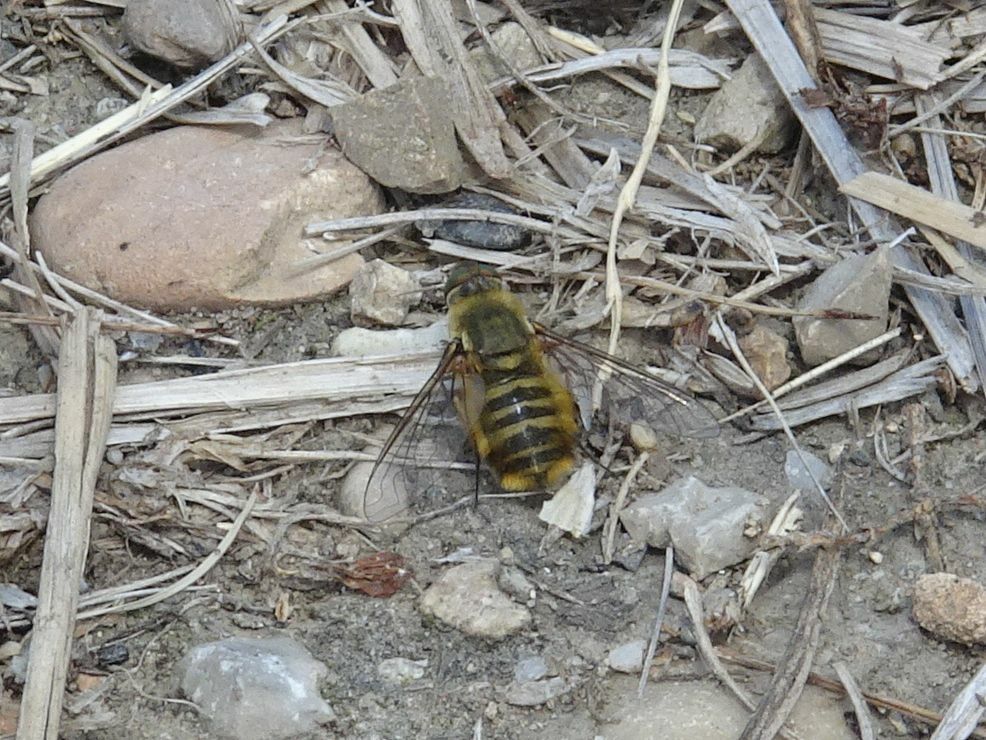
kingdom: Animalia
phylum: Arthropoda
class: Insecta
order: Diptera
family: Bombyliidae
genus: Villa
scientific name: Villa hottentotta
